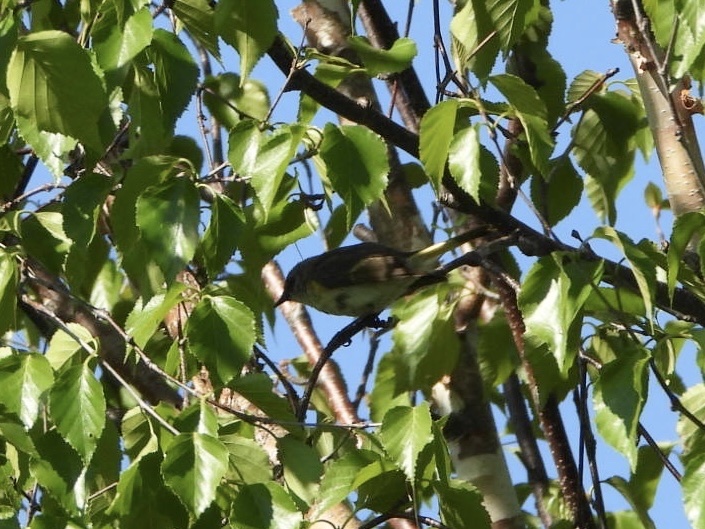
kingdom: Animalia
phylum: Chordata
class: Aves
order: Passeriformes
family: Parulidae
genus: Setophaga
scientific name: Setophaga ruticilla
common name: American redstart
